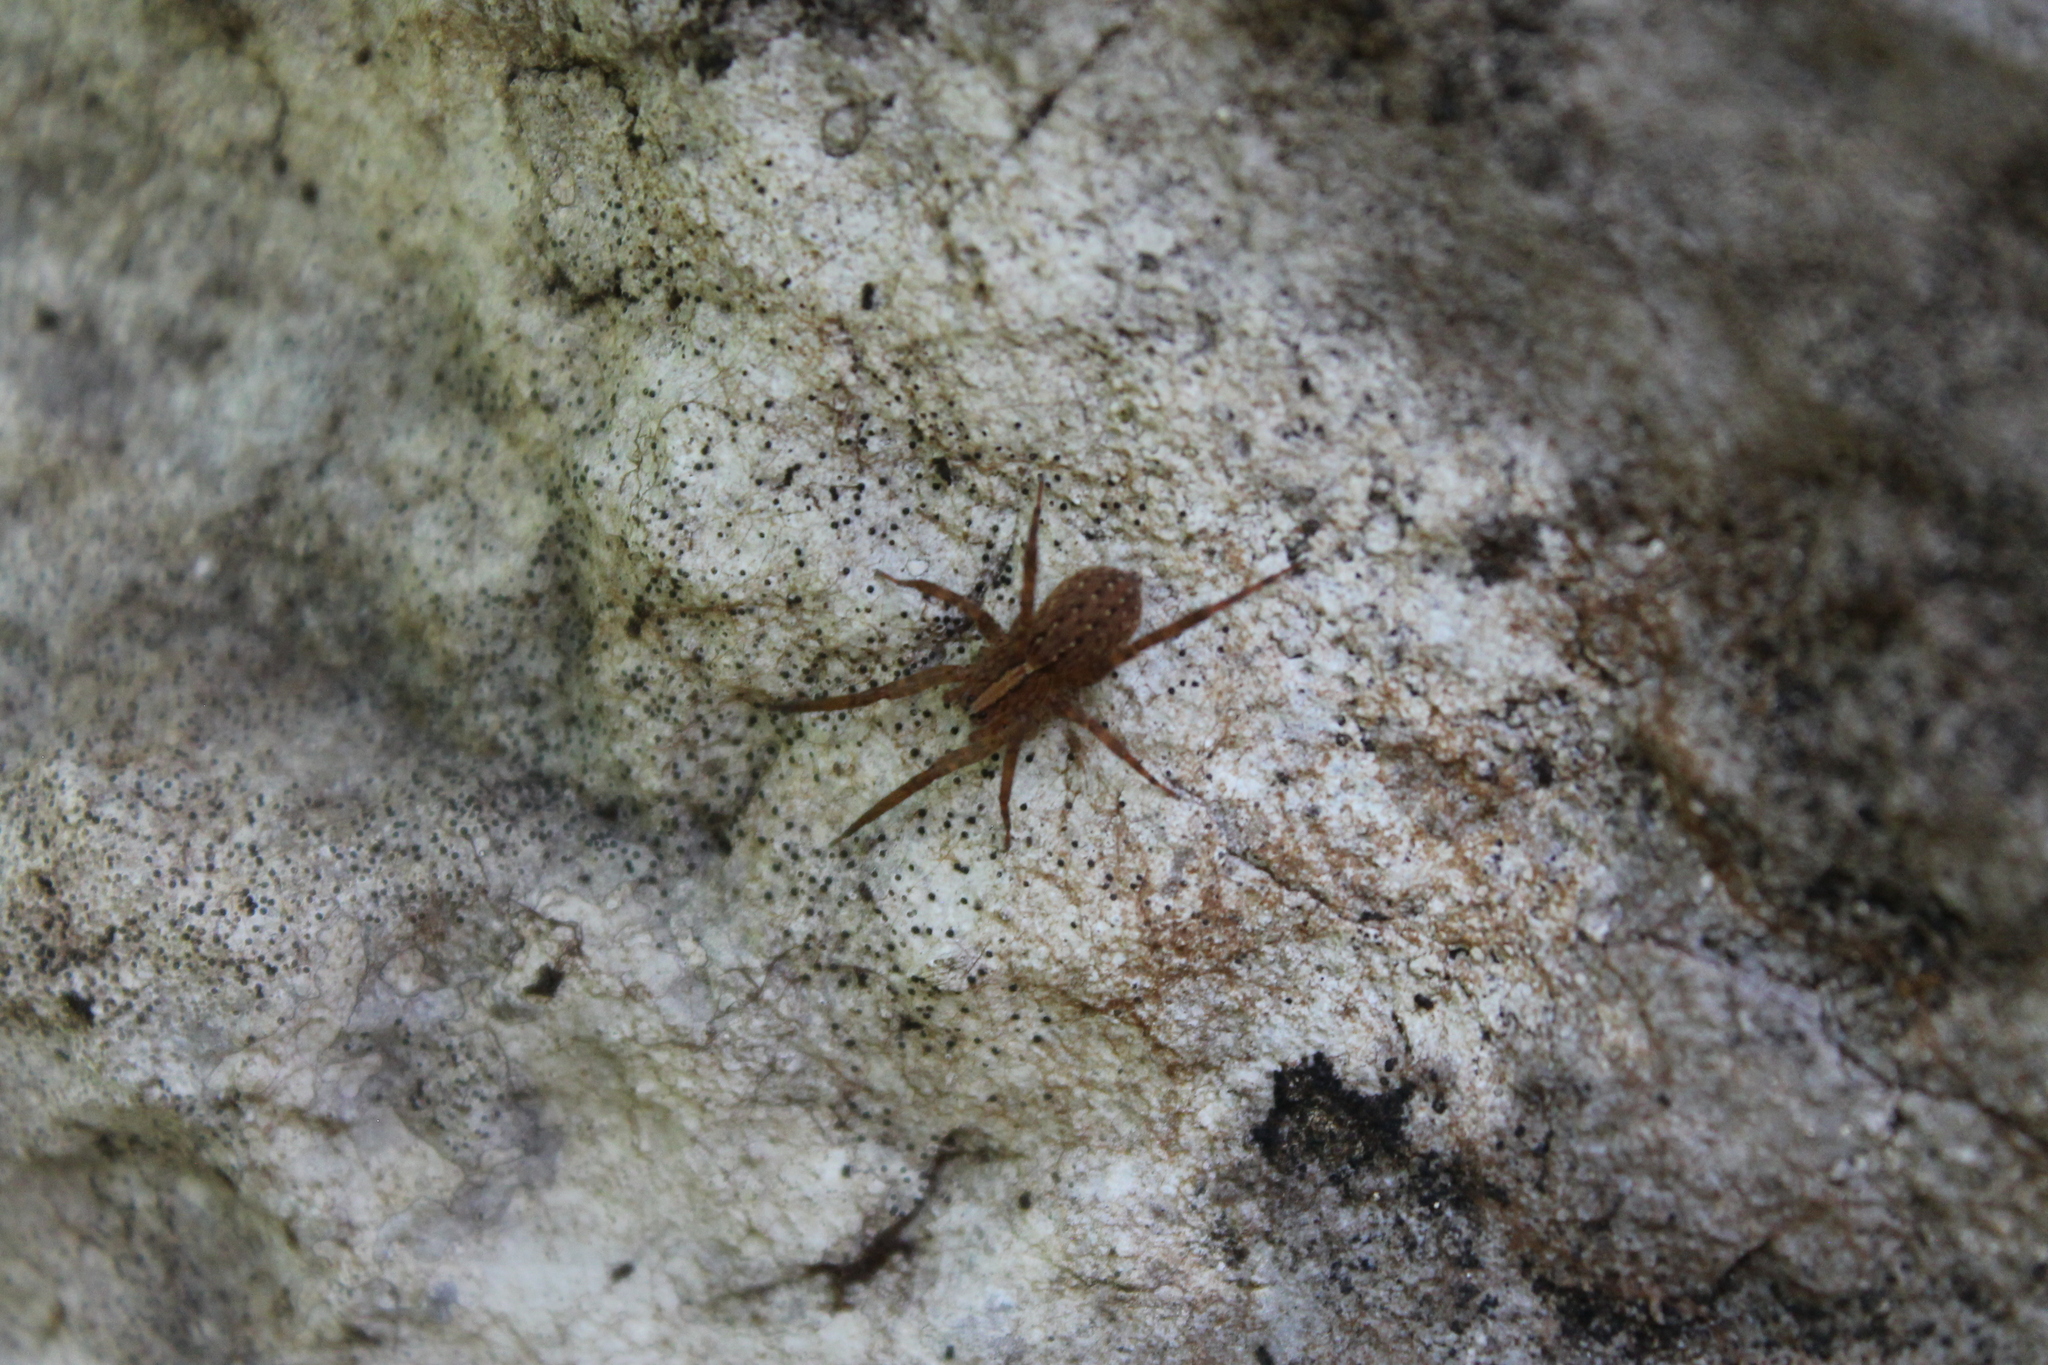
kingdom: Animalia
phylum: Arthropoda
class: Arachnida
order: Araneae
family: Ctenidae
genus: Anahita
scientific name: Anahita punctulata
